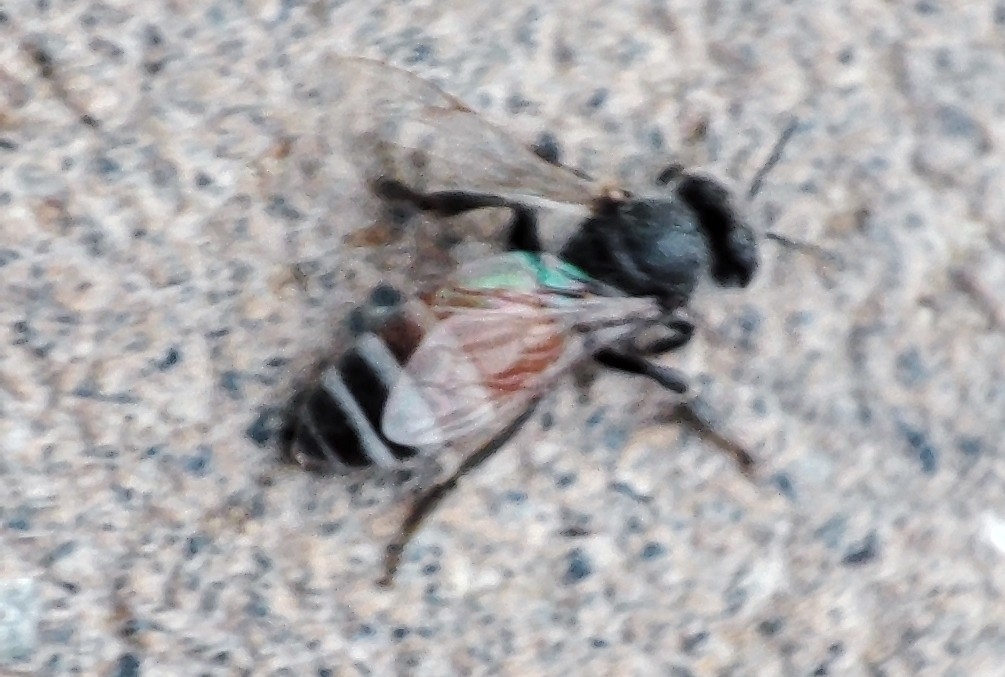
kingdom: Animalia
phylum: Arthropoda
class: Insecta
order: Hymenoptera
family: Apidae
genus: Apis
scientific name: Apis florea
